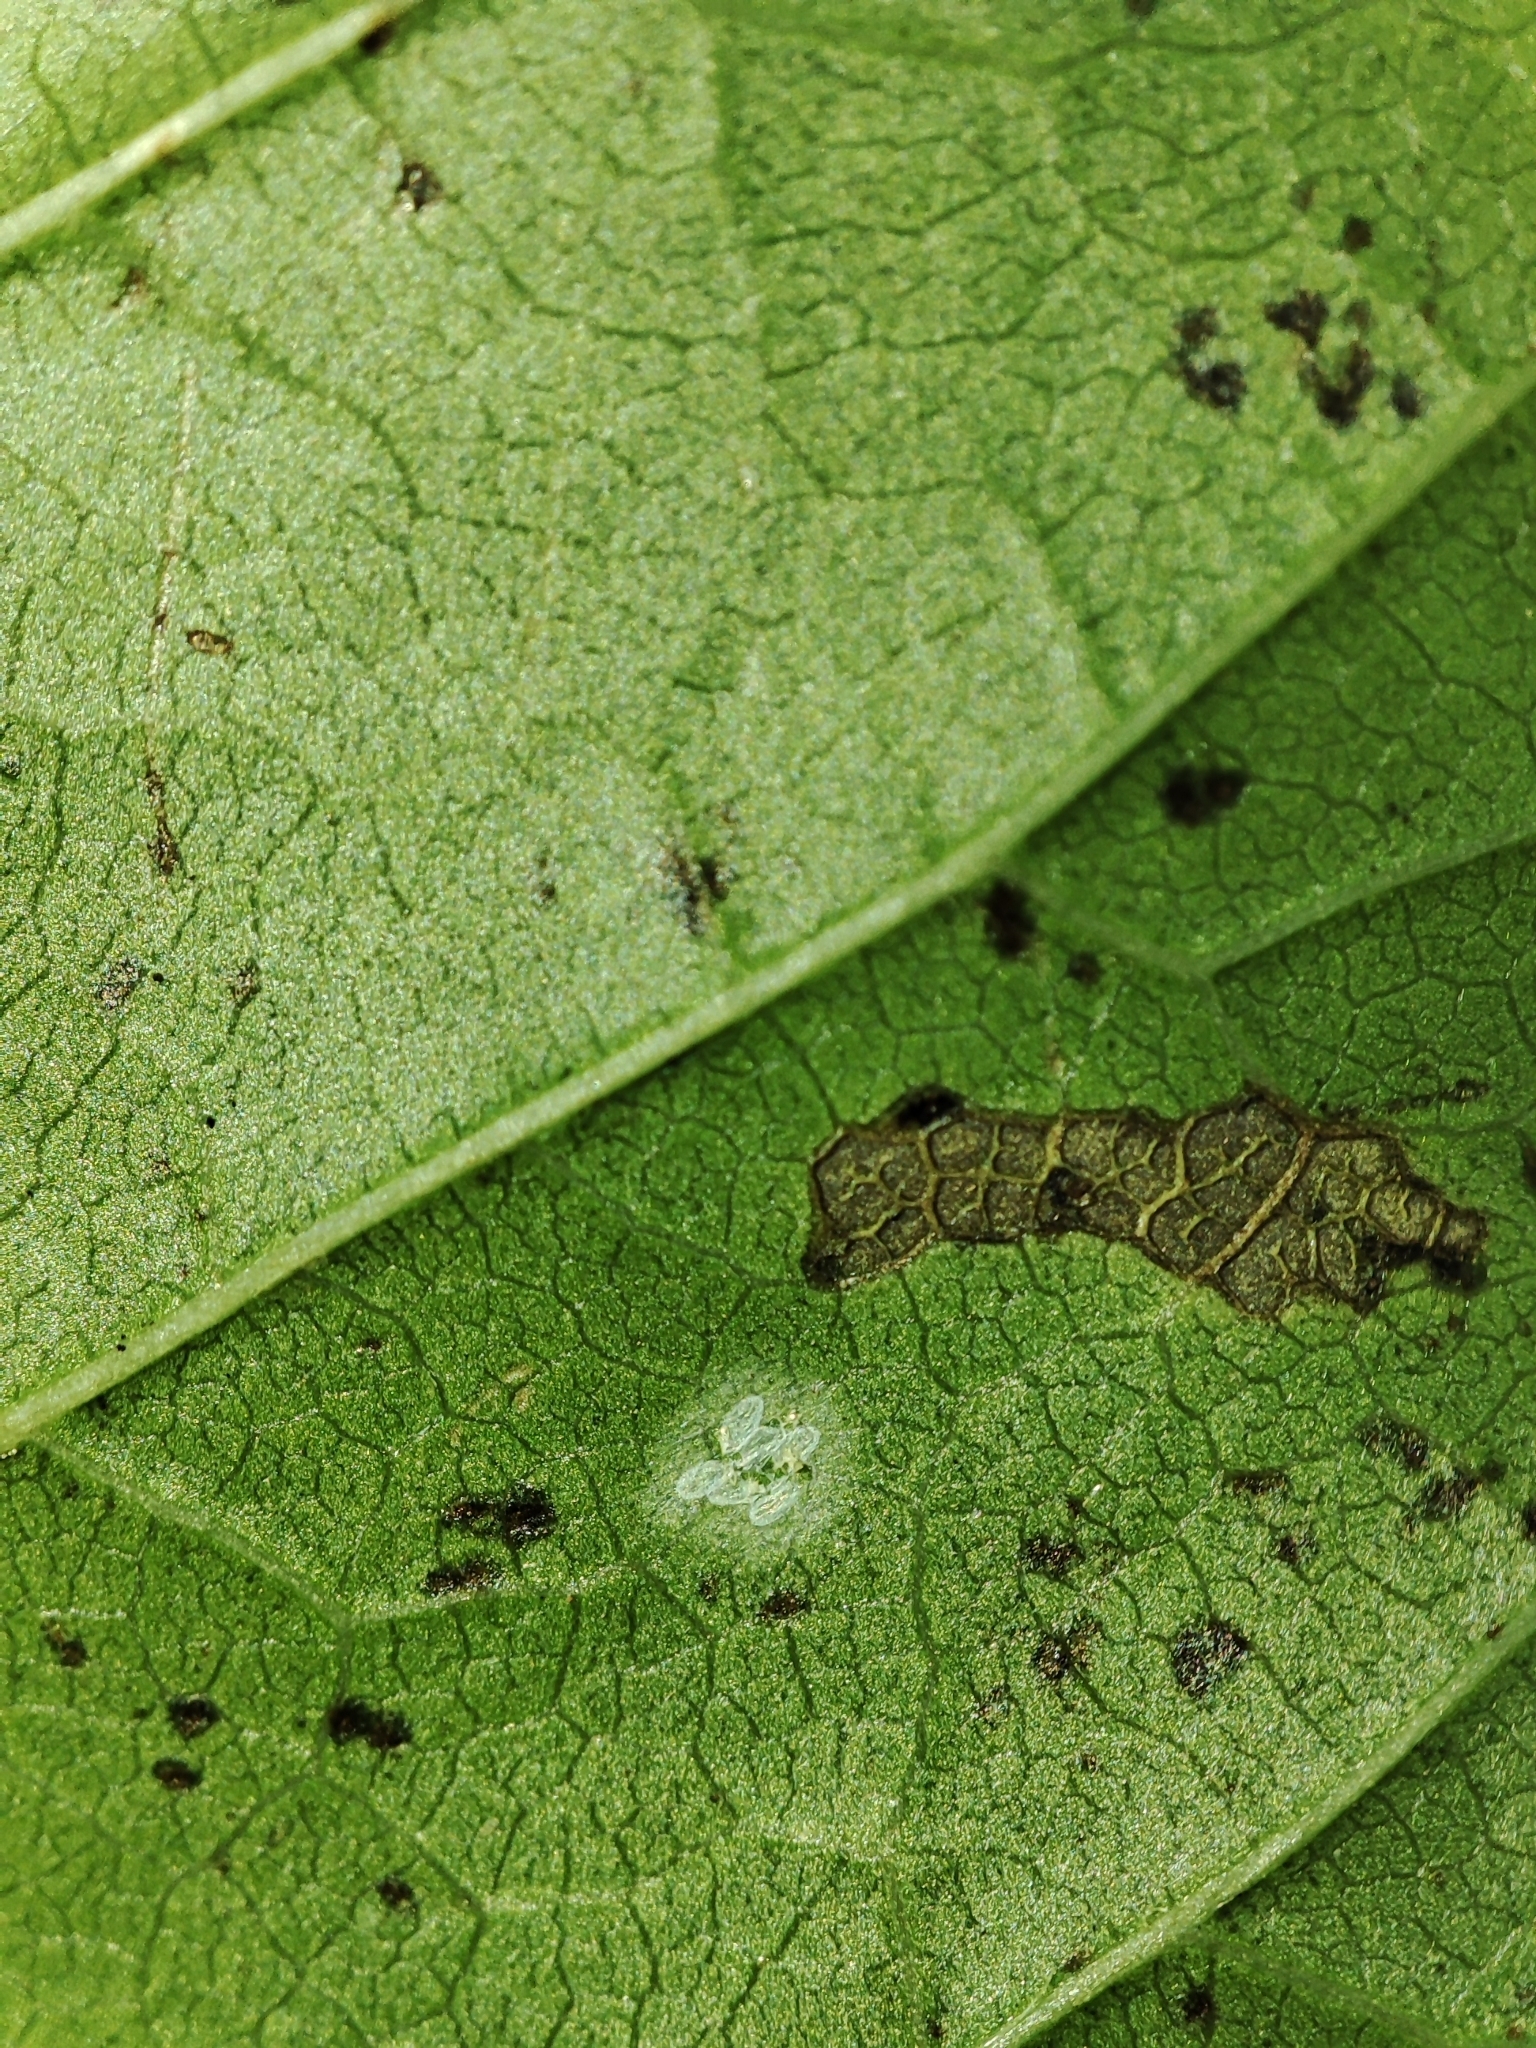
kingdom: Plantae
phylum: Tracheophyta
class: Magnoliopsida
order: Sapindales
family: Sapindaceae
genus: Acer
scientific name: Acer tataricum
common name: Tartar maple
